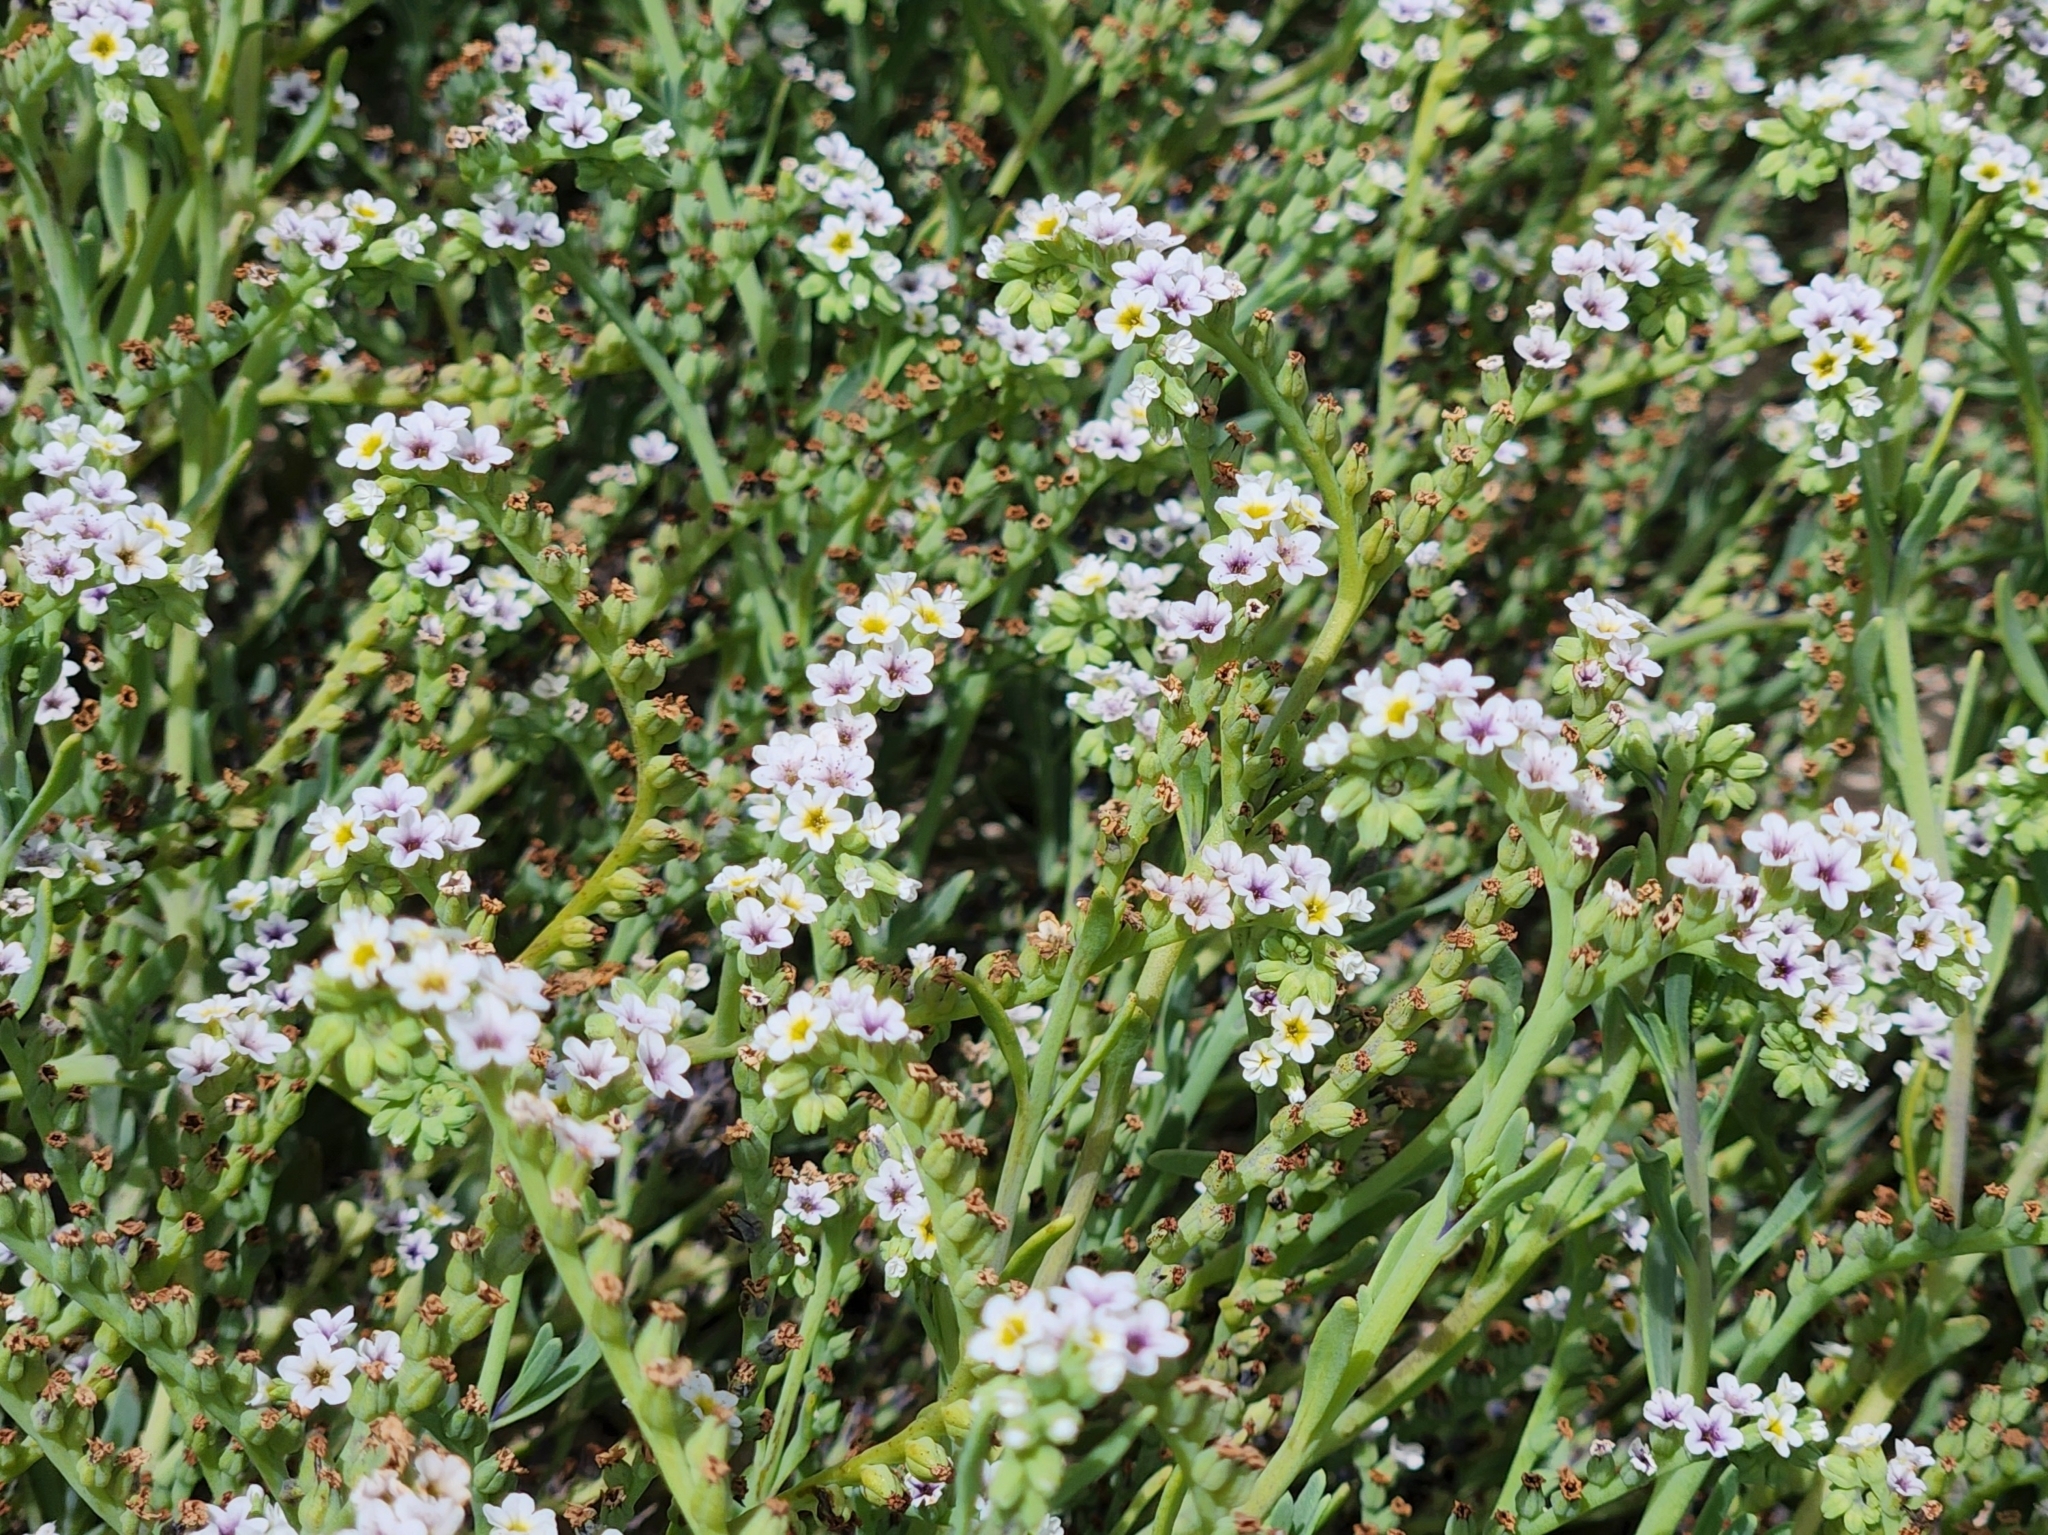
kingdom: Plantae
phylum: Tracheophyta
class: Magnoliopsida
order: Boraginales
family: Heliotropiaceae
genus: Heliotropium
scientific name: Heliotropium curassavicum
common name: Seaside heliotrope
